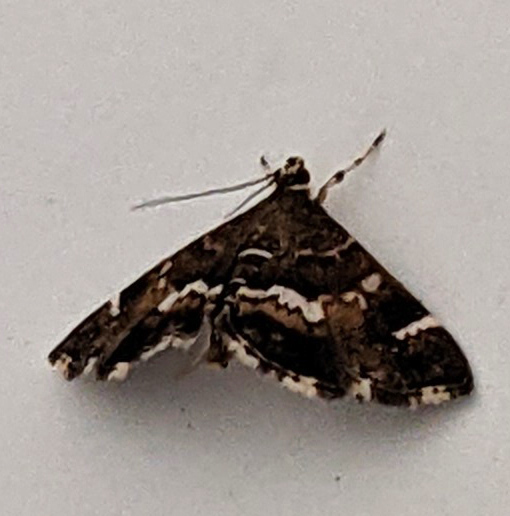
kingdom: Animalia
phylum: Arthropoda
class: Insecta
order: Lepidoptera
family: Crambidae
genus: Hymenia
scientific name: Hymenia perspectalis
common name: Spotted beet webworm
